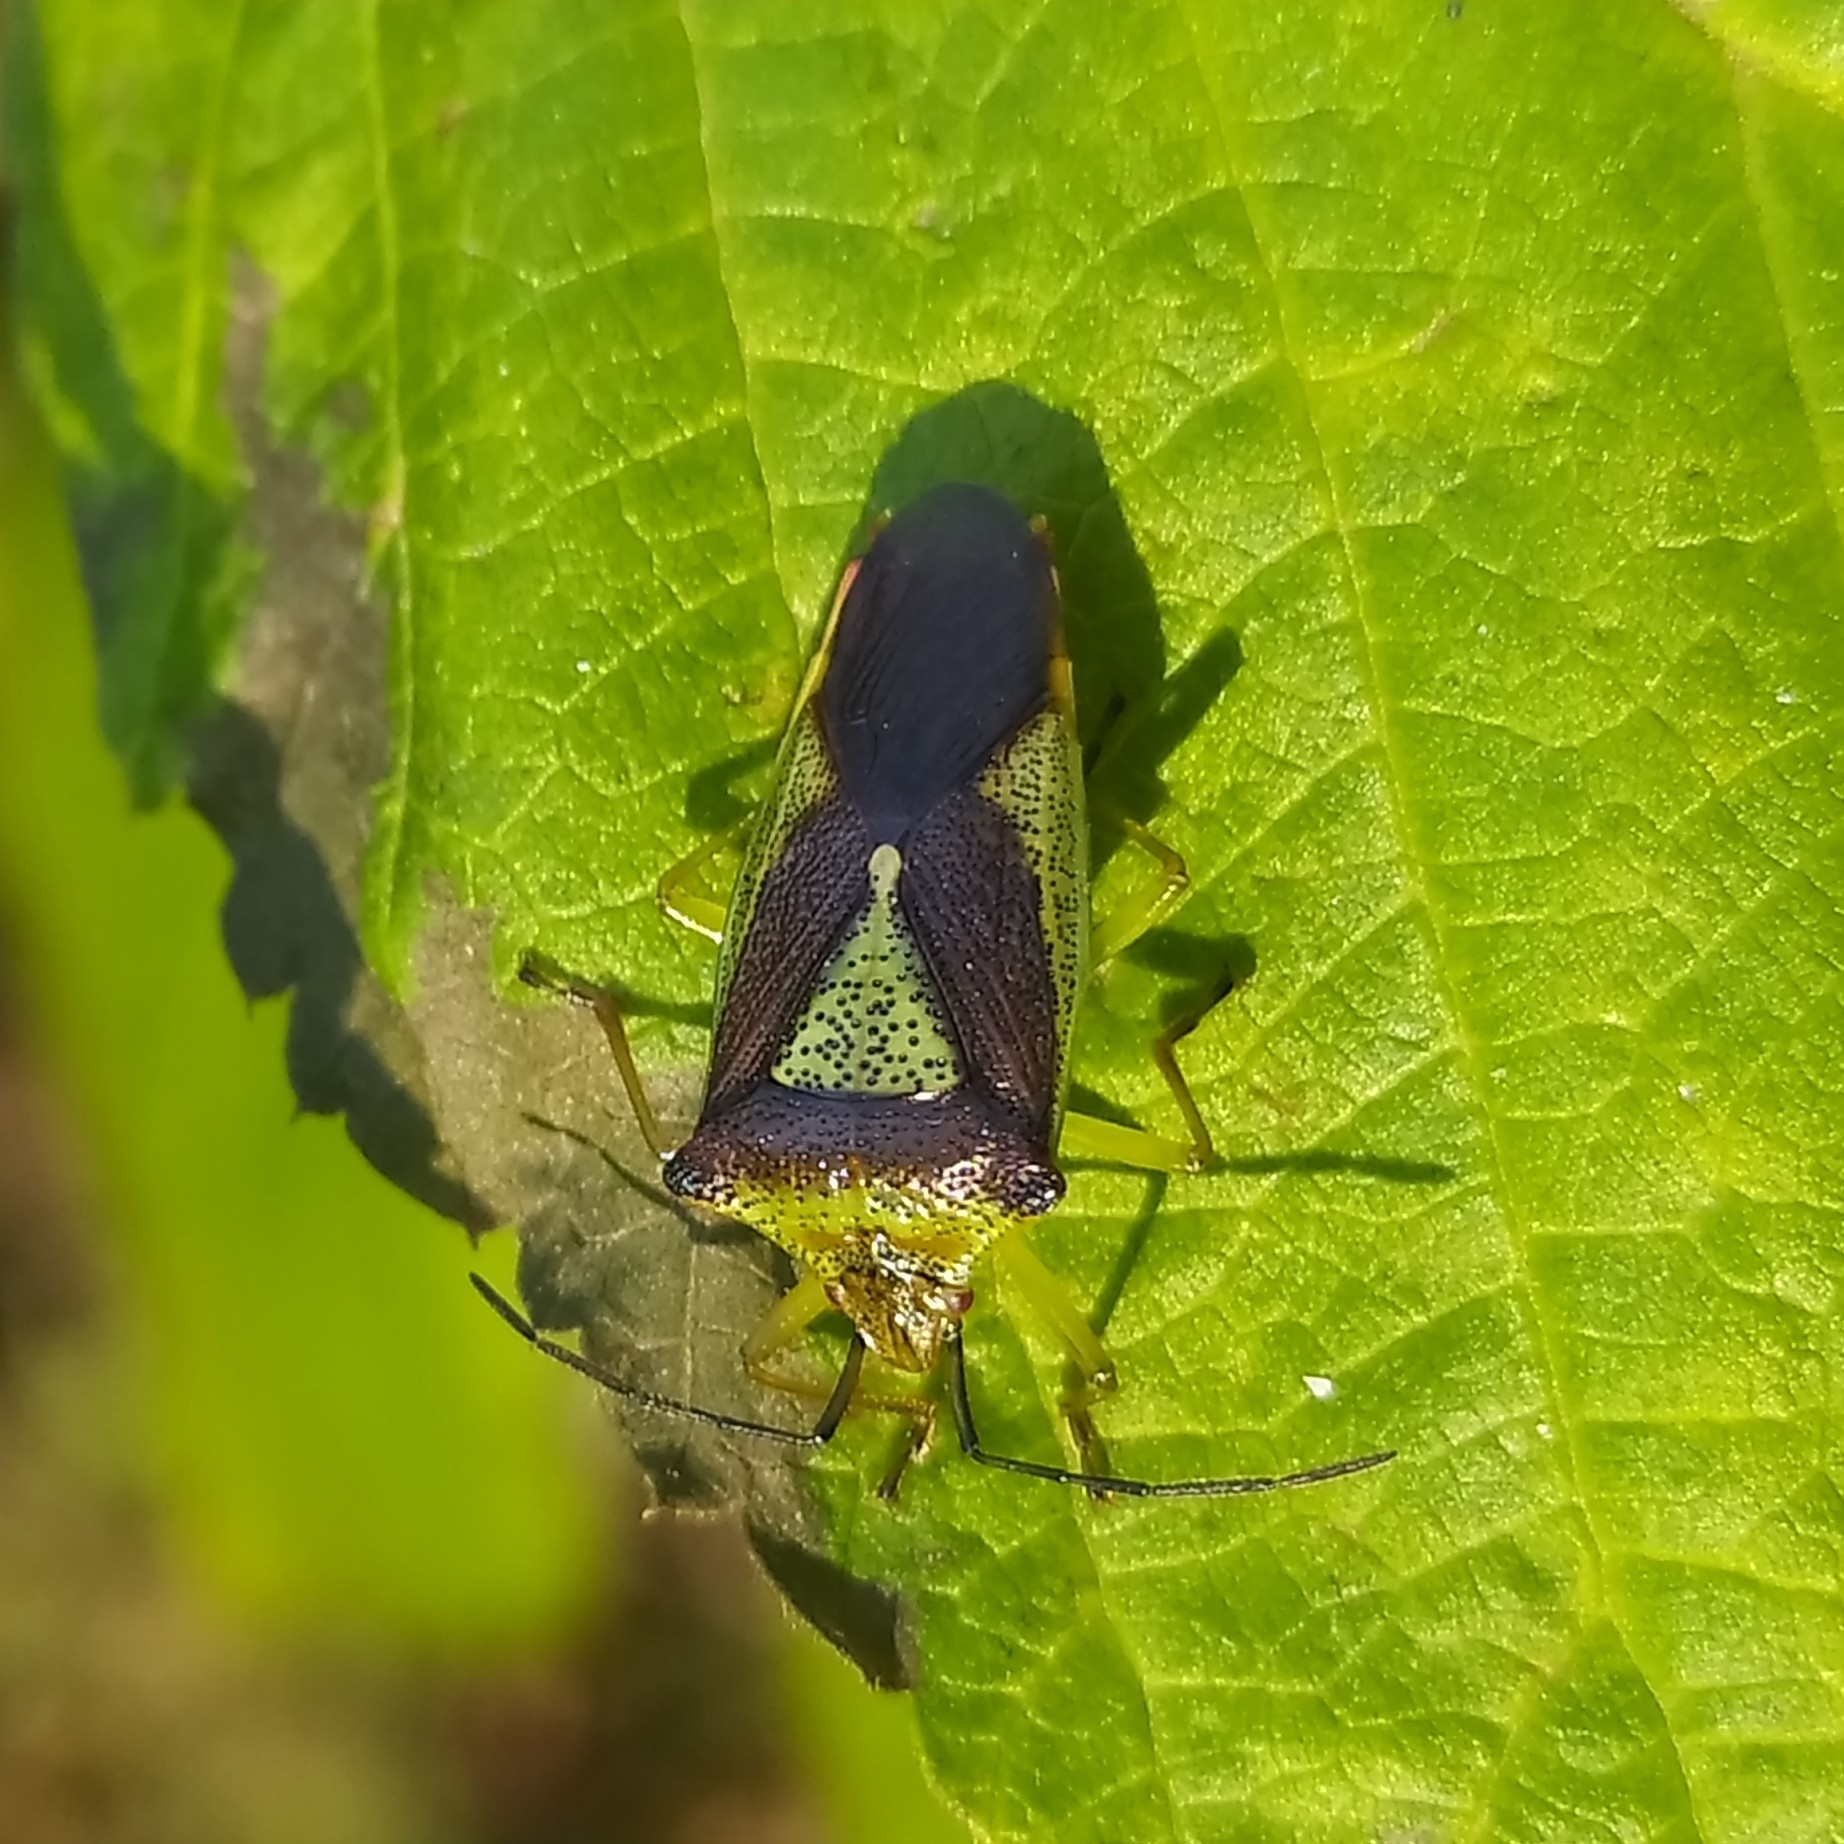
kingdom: Animalia
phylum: Arthropoda
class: Insecta
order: Hemiptera
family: Acanthosomatidae
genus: Acanthosoma
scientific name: Acanthosoma haemorrhoidale
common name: Hawthorn shieldbug
